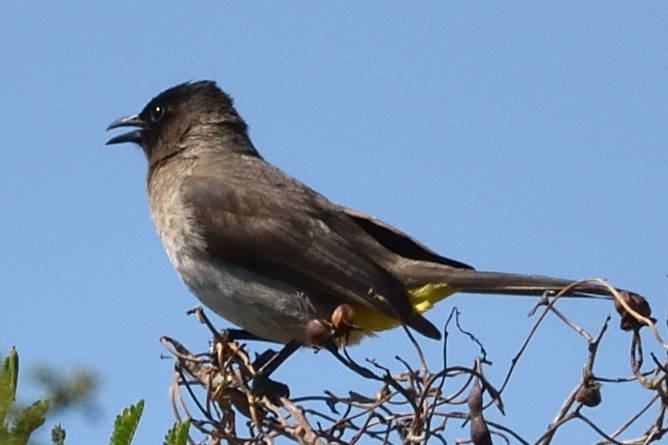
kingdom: Animalia
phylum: Chordata
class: Aves
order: Passeriformes
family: Pycnonotidae
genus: Pycnonotus
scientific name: Pycnonotus barbatus
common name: Common bulbul
